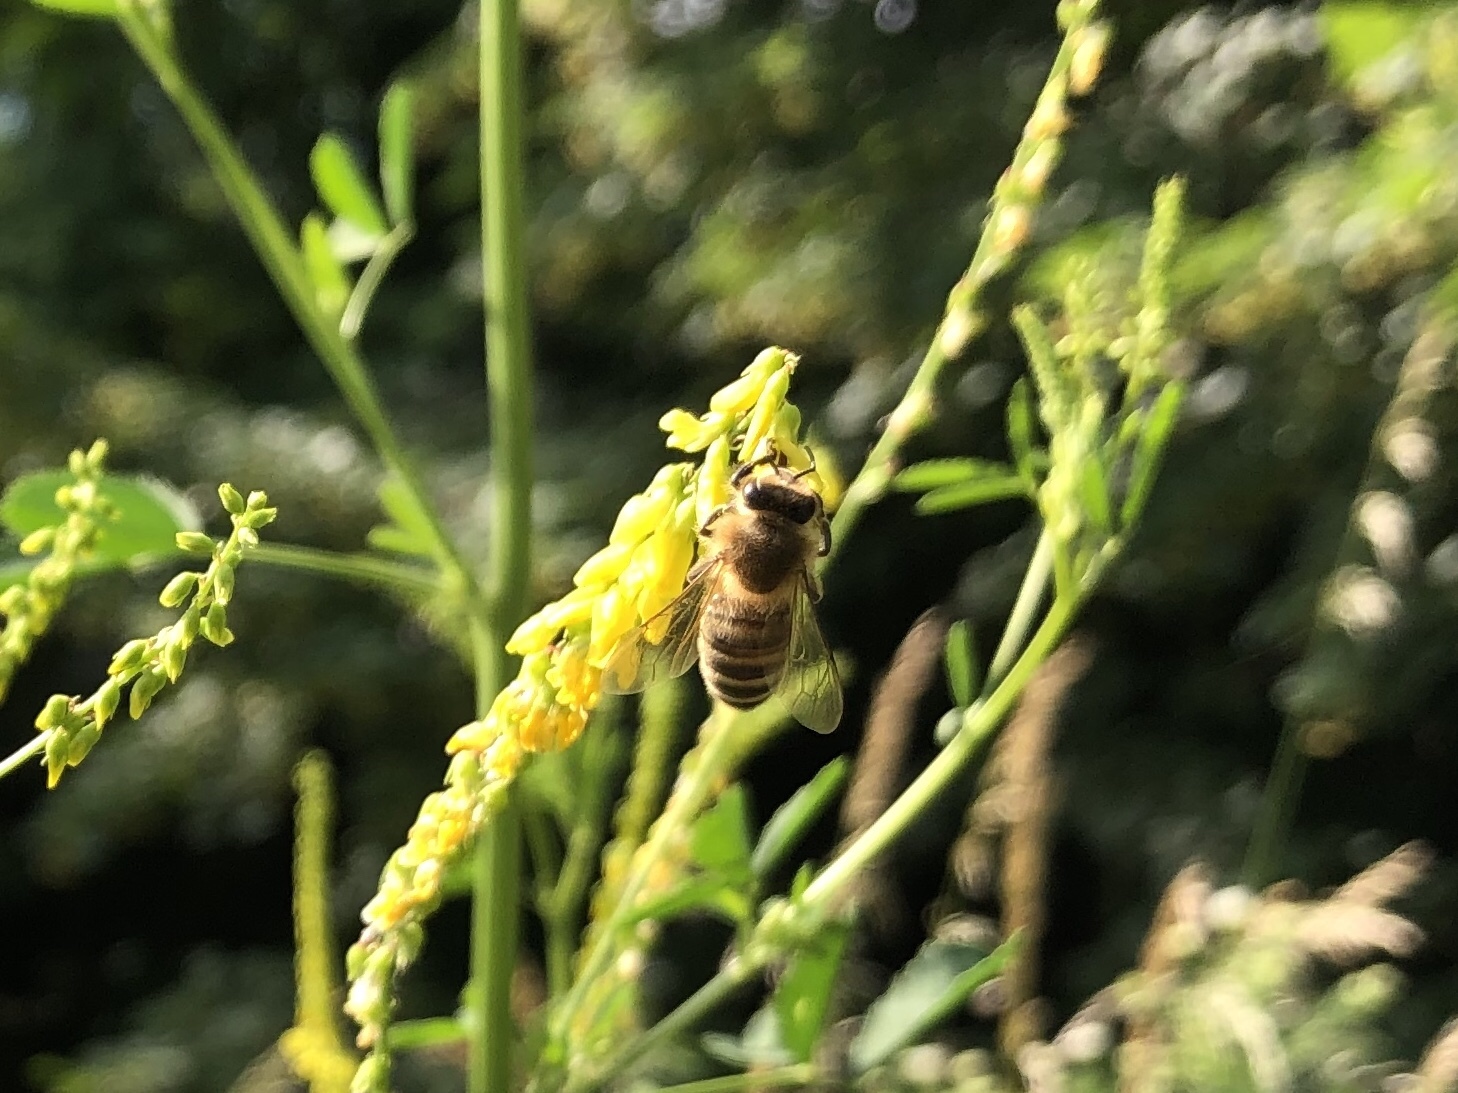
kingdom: Animalia
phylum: Arthropoda
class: Insecta
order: Hymenoptera
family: Apidae
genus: Apis
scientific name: Apis mellifera
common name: Honey bee
